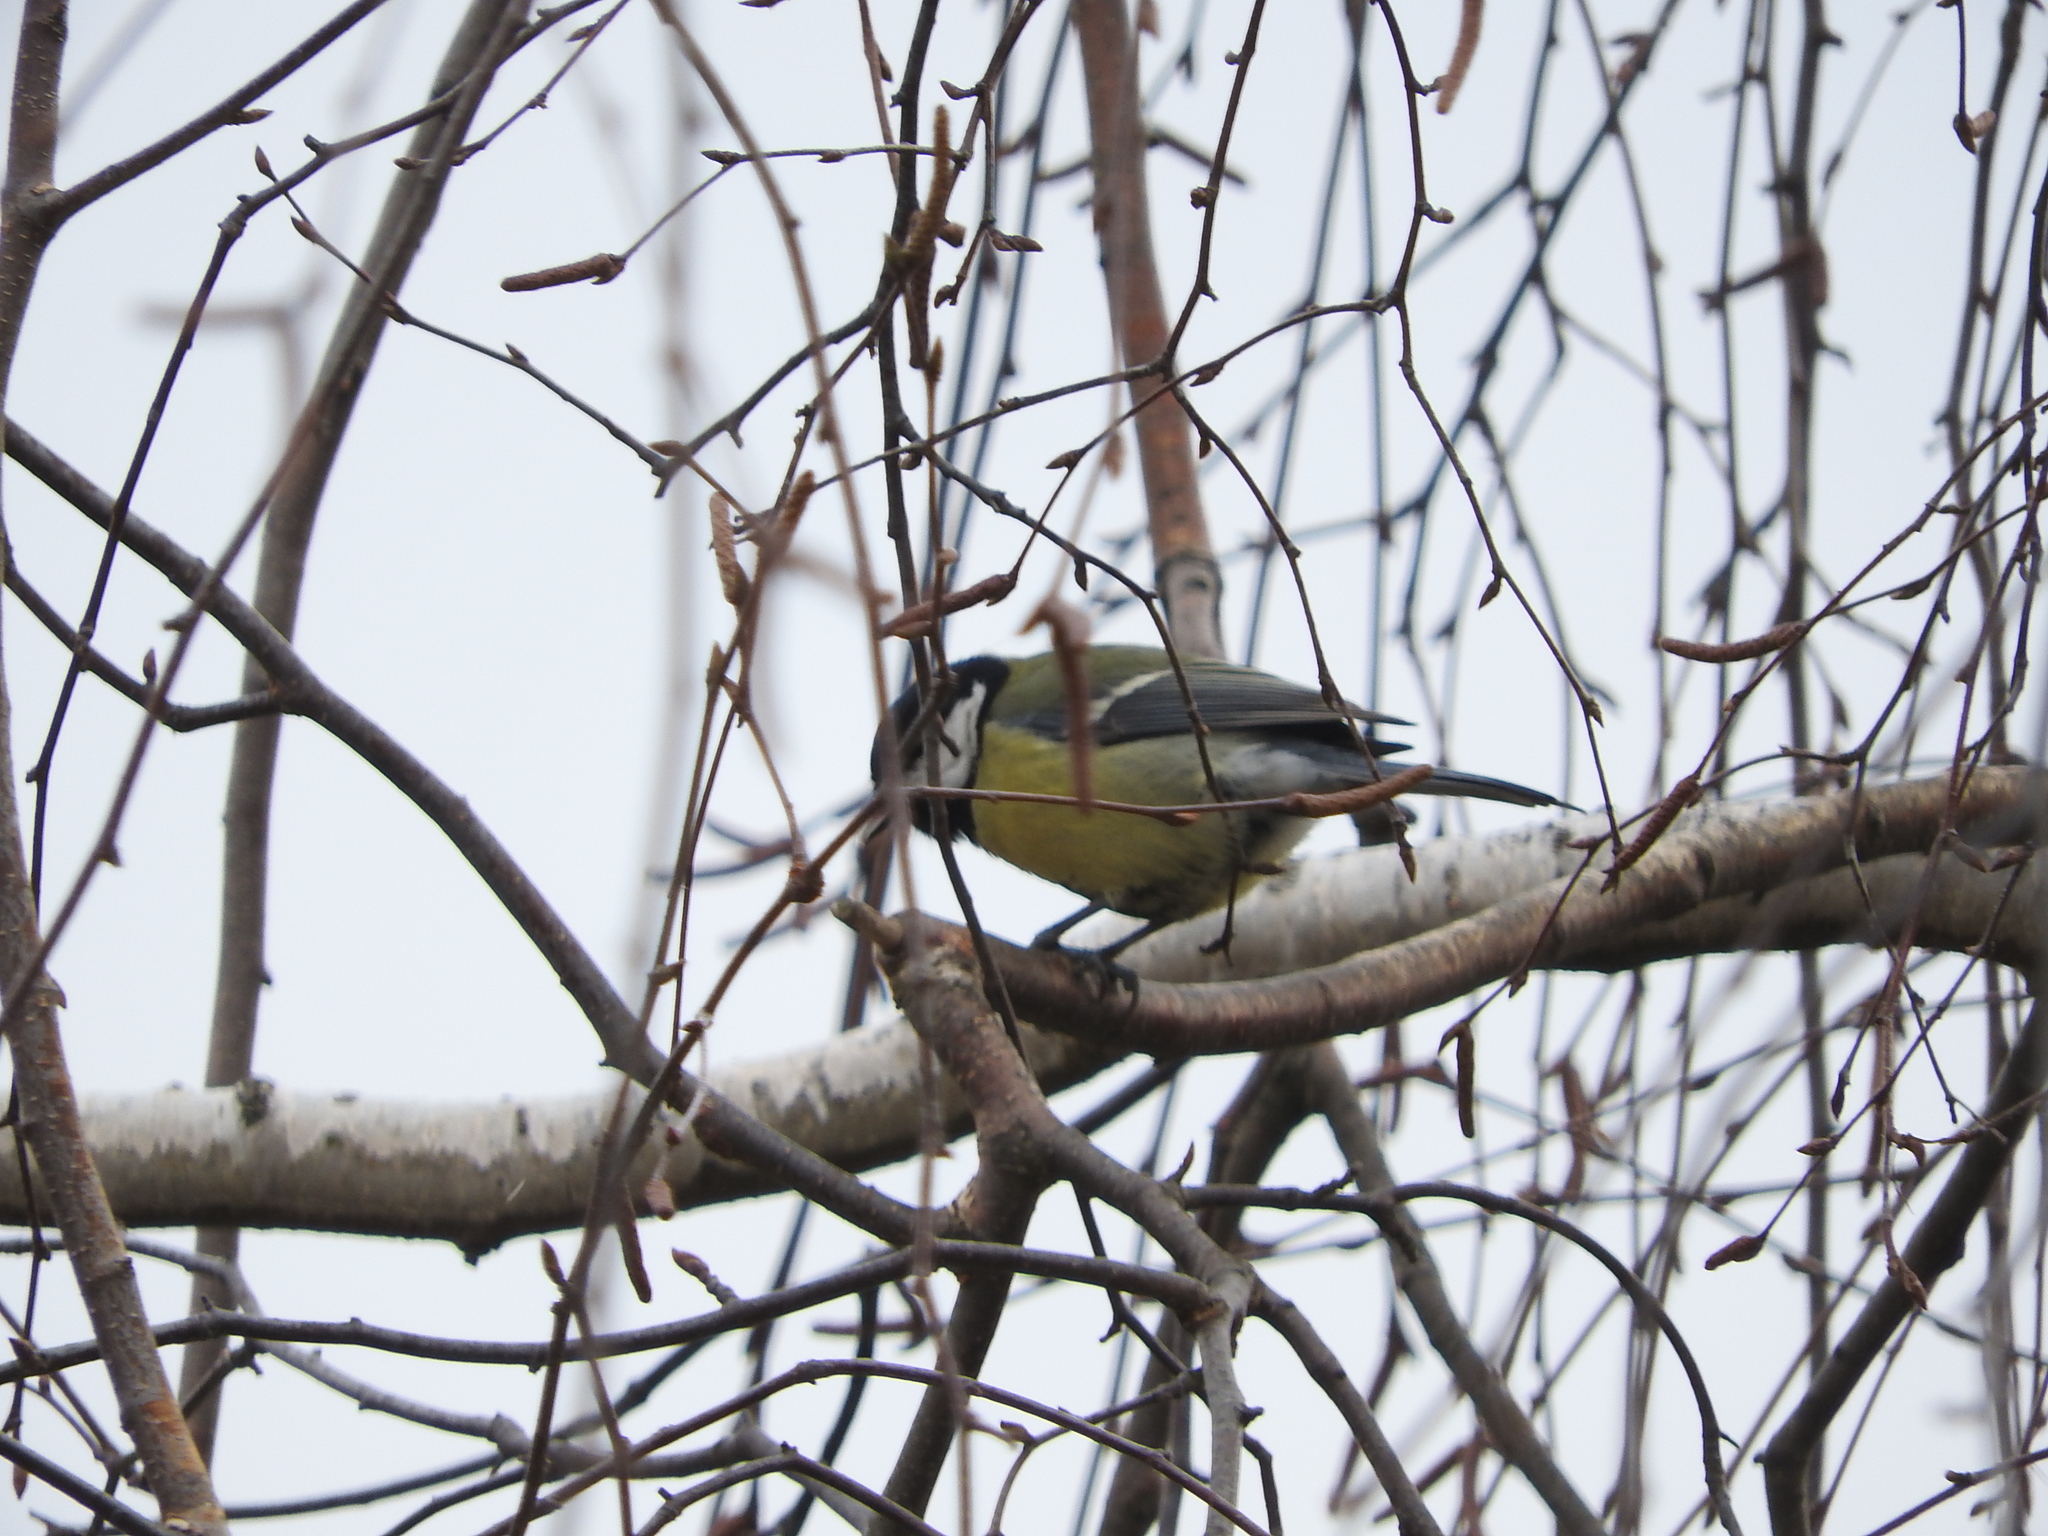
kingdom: Animalia
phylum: Chordata
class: Aves
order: Passeriformes
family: Paridae
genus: Parus
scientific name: Parus major
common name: Great tit
